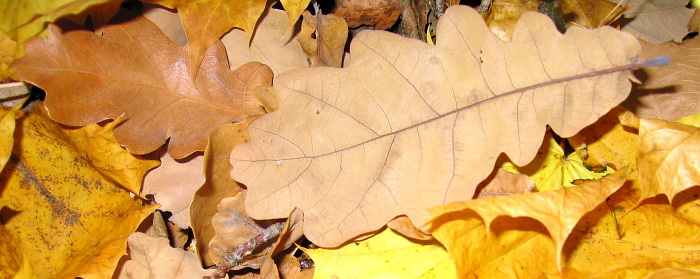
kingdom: Plantae
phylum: Tracheophyta
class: Magnoliopsida
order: Fagales
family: Fagaceae
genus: Quercus
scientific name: Quercus robur
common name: Pedunculate oak
